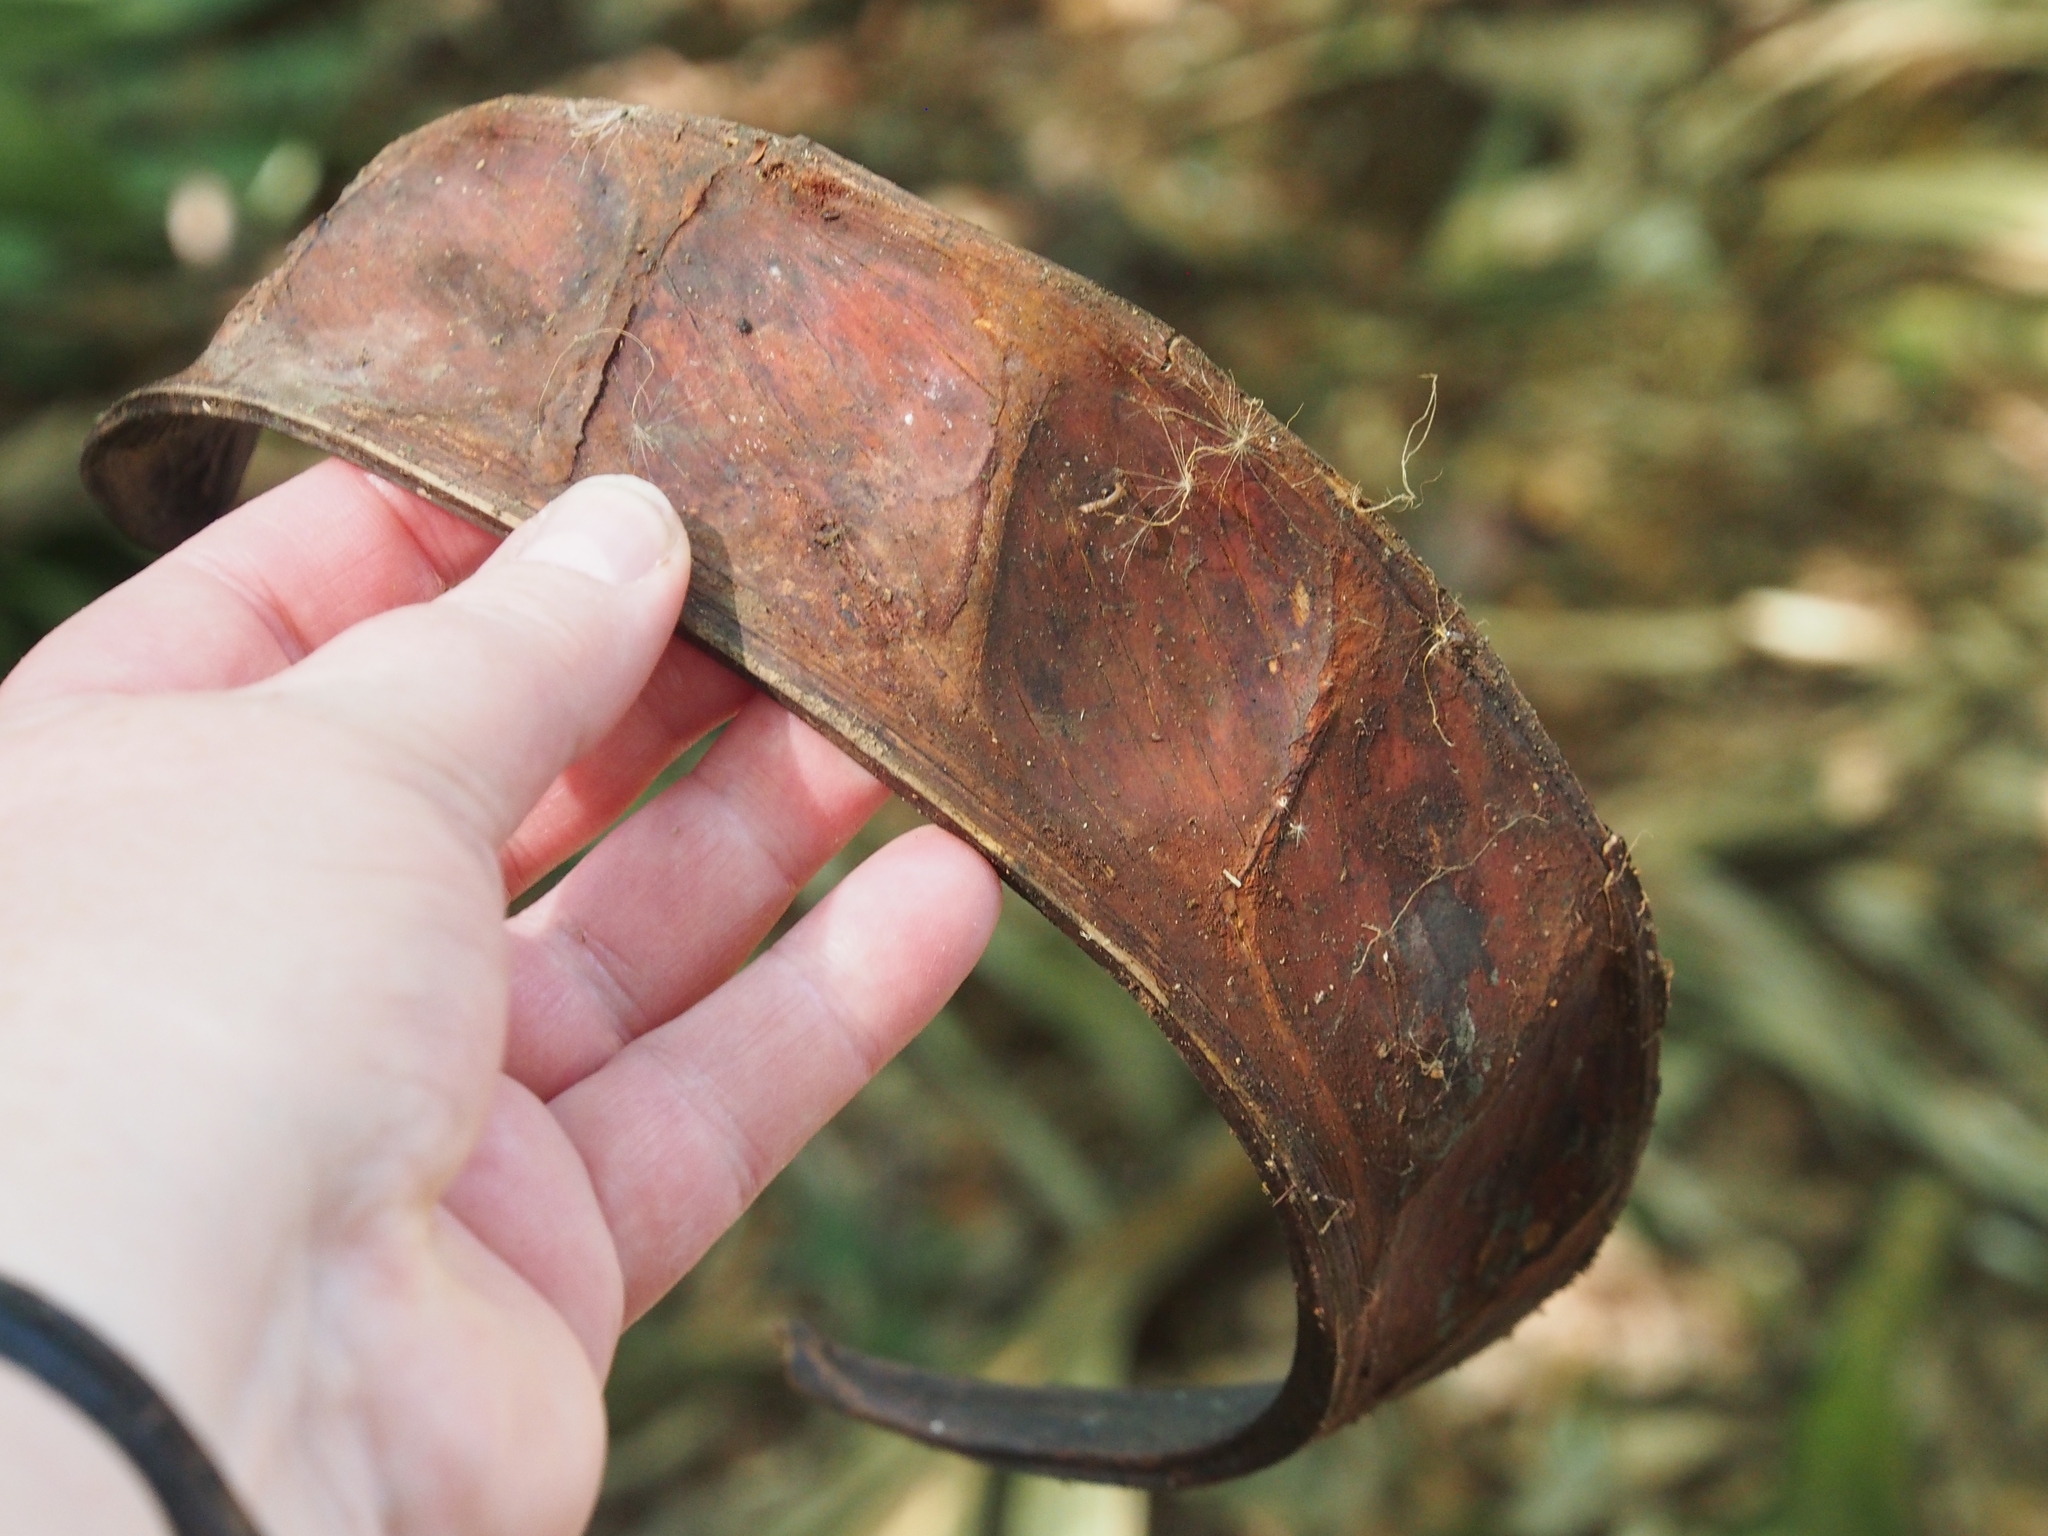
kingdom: Plantae
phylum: Tracheophyta
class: Magnoliopsida
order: Fabales
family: Fabaceae
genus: Pentaclethra
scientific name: Pentaclethra macroloba
